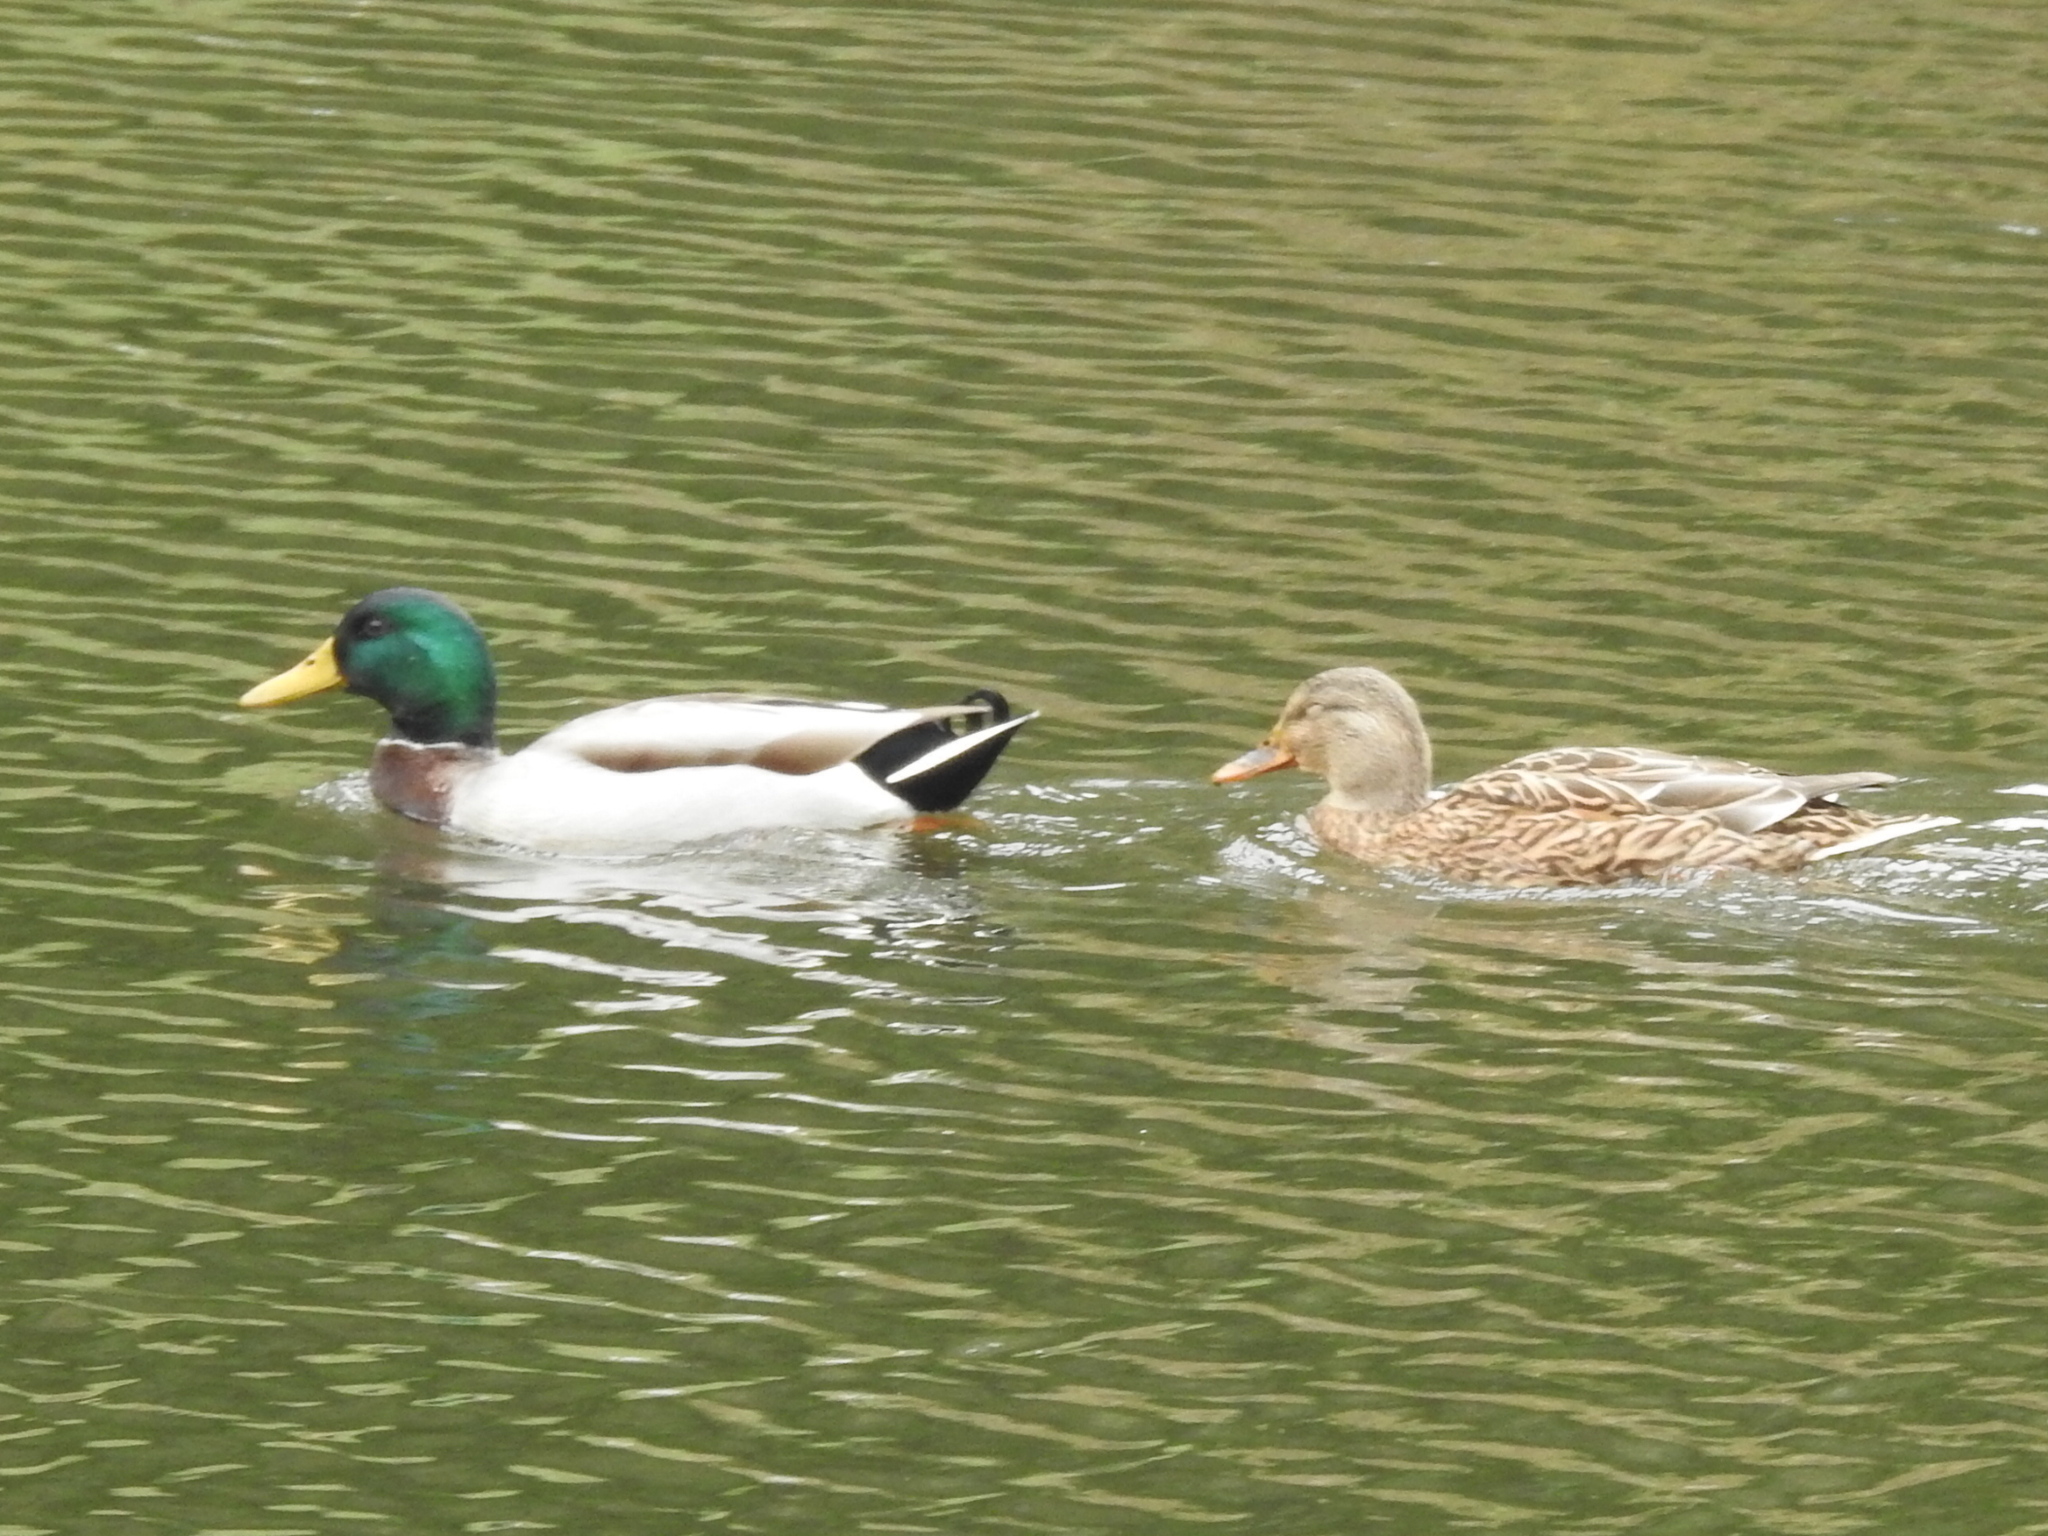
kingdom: Animalia
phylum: Chordata
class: Aves
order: Anseriformes
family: Anatidae
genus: Anas
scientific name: Anas platyrhynchos
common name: Mallard
